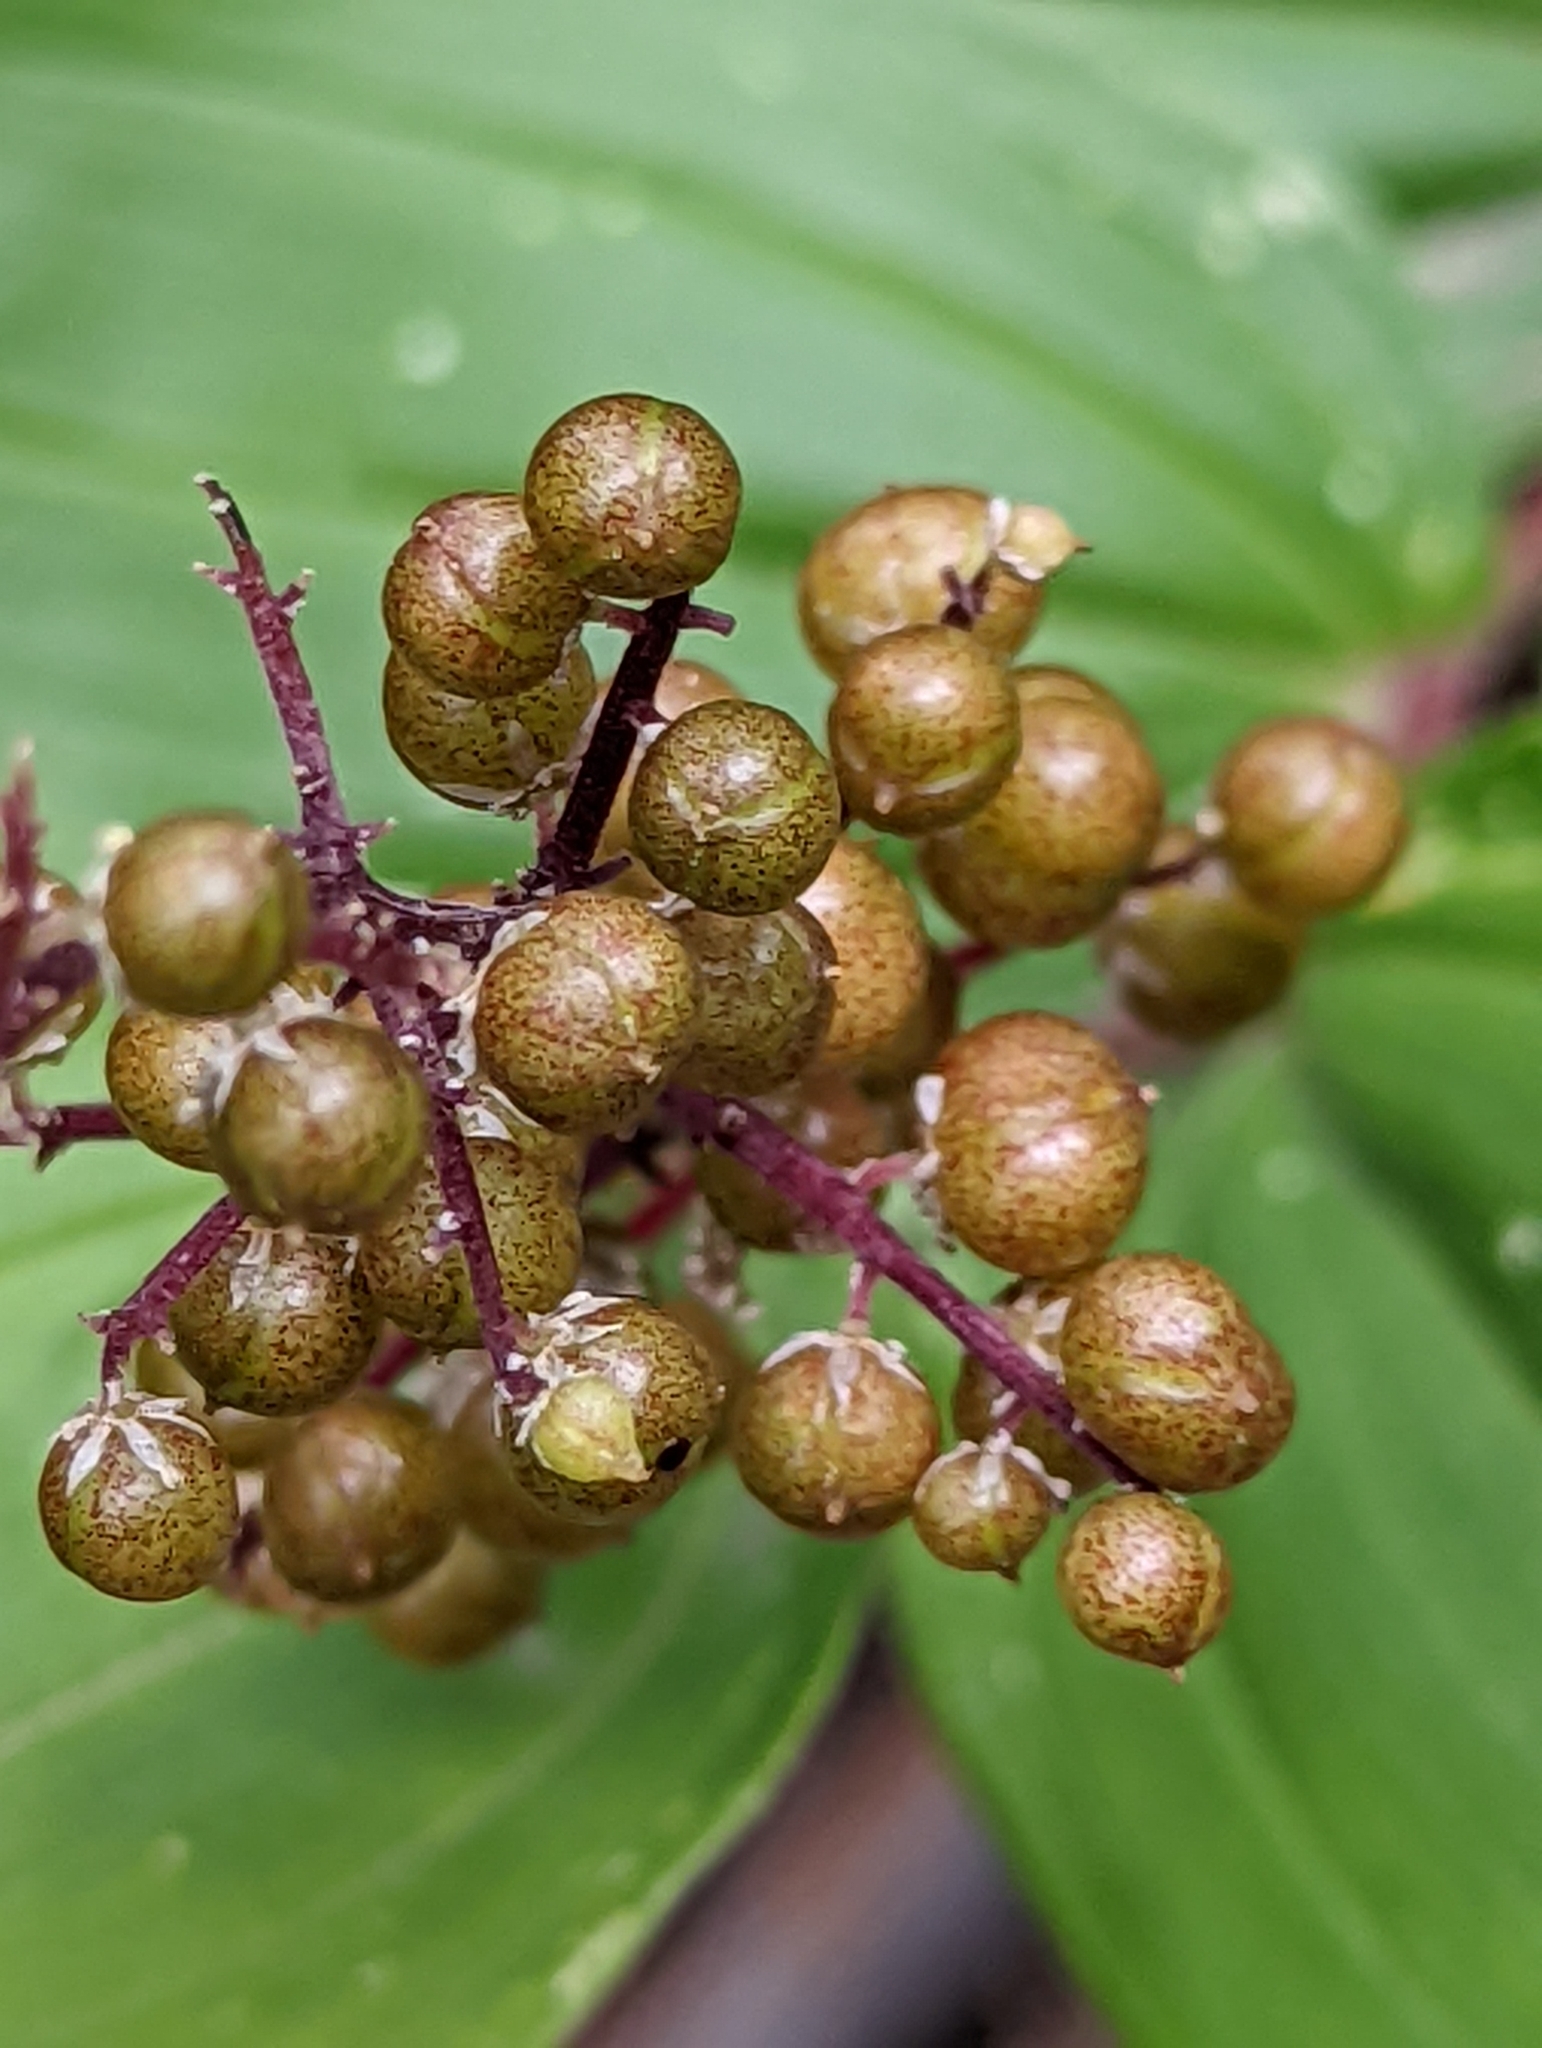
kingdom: Plantae
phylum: Tracheophyta
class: Liliopsida
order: Asparagales
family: Asparagaceae
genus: Maianthemum
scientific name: Maianthemum racemosum
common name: False spikenard
